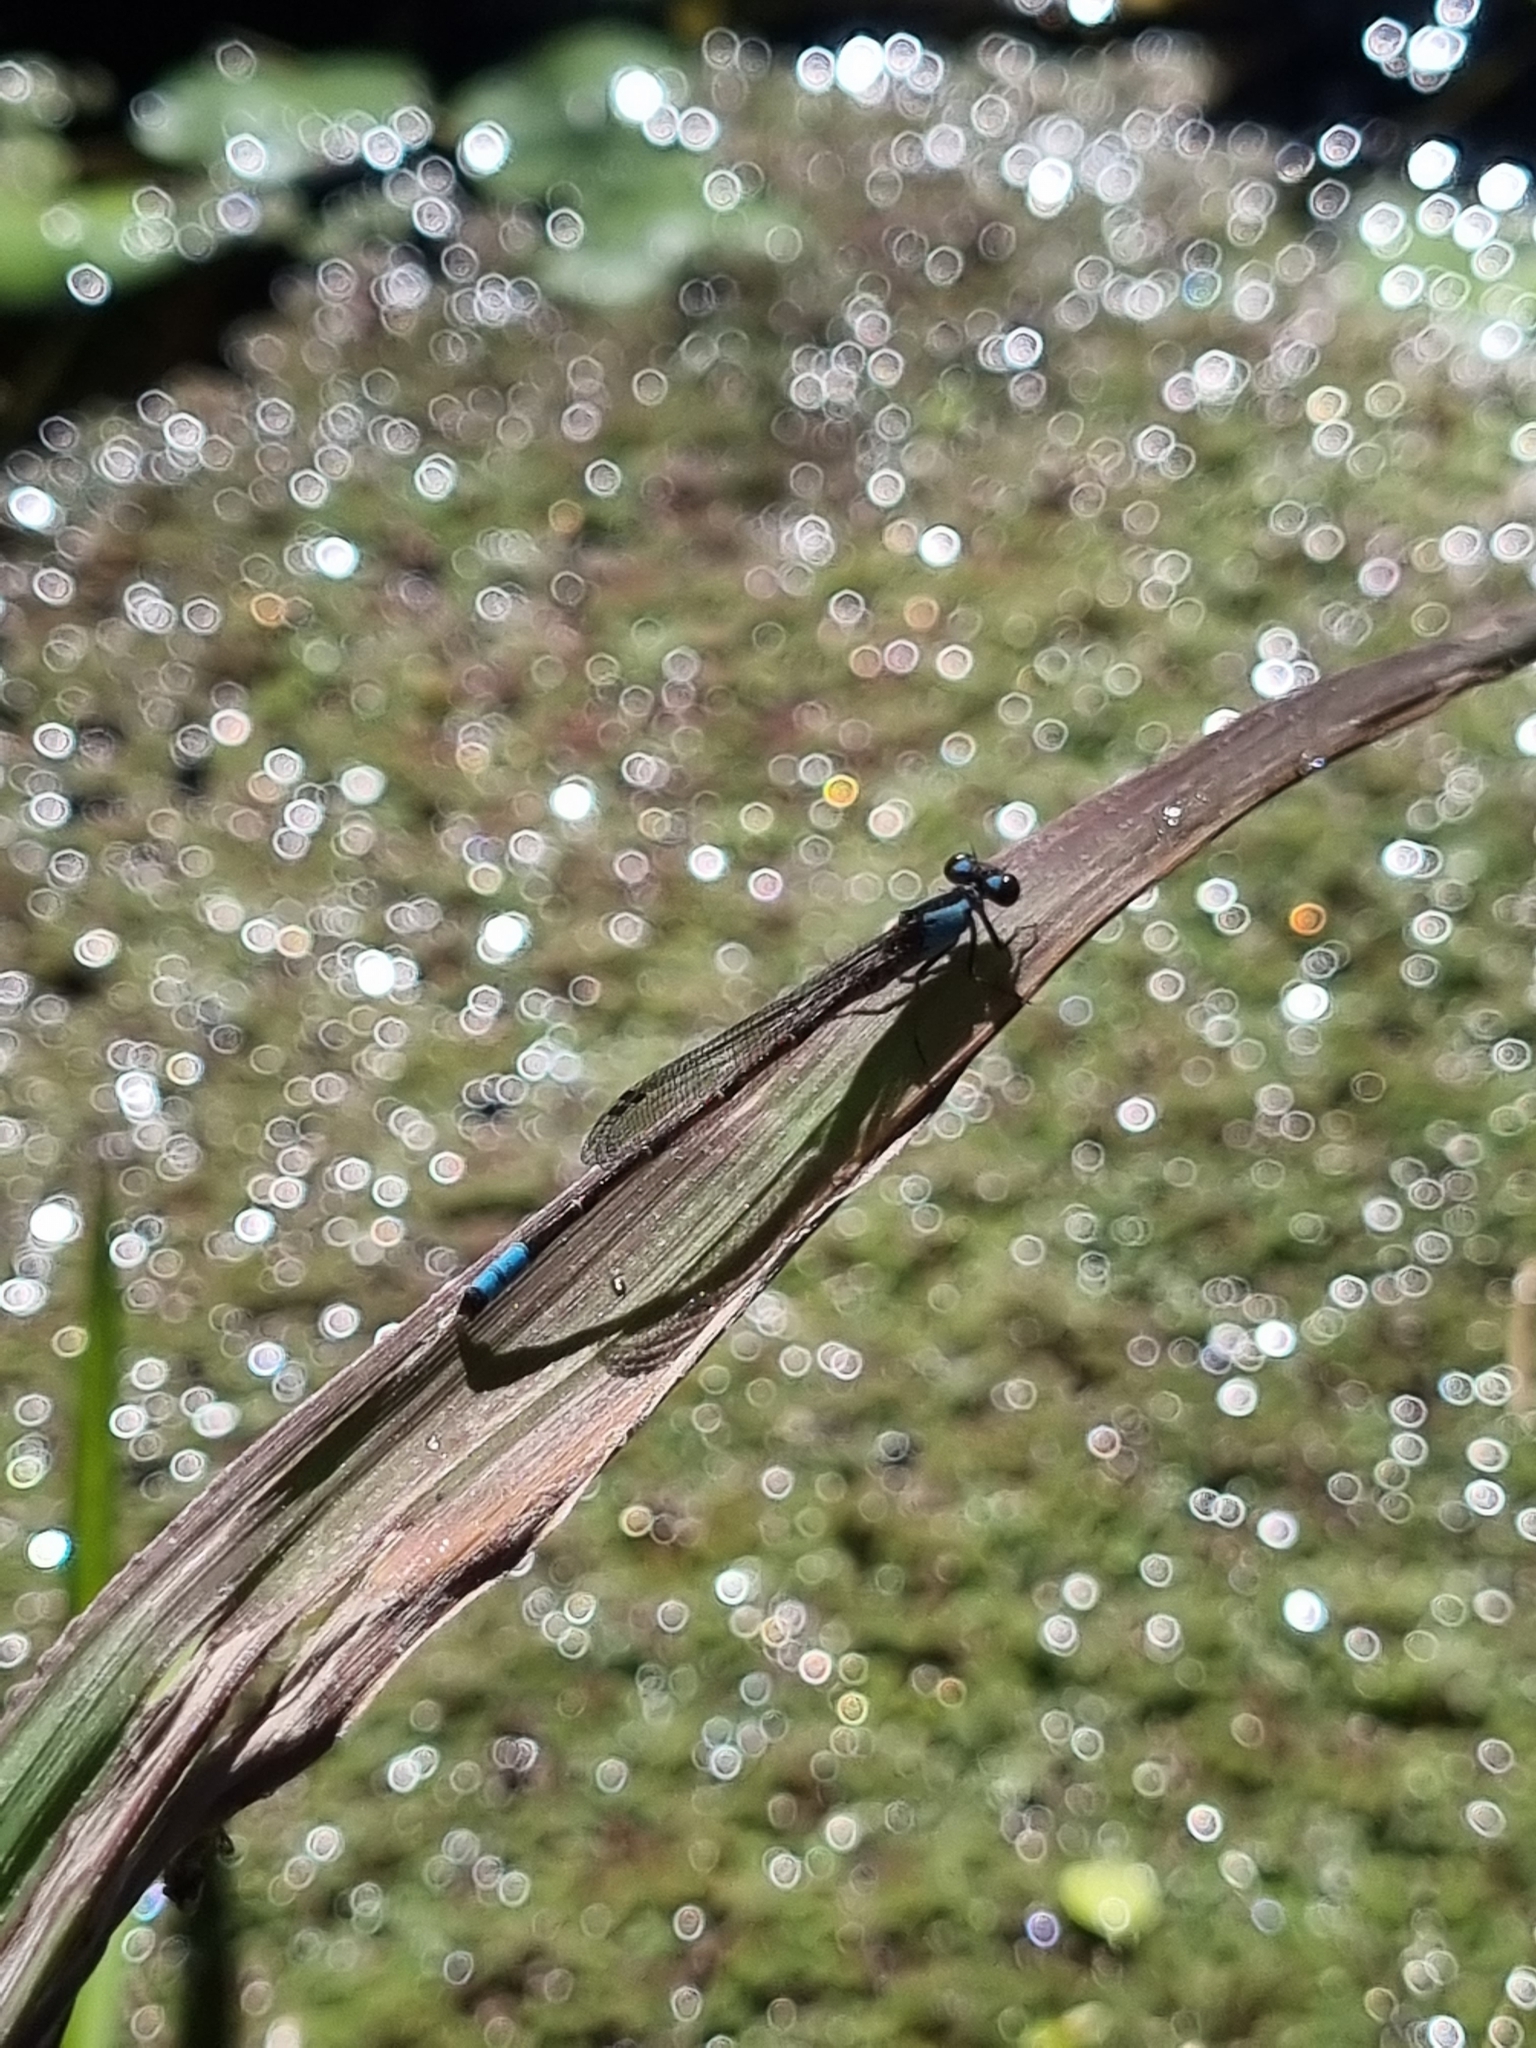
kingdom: Animalia
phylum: Arthropoda
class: Insecta
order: Odonata
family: Coenagrionidae
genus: Oxyagrion
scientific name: Oxyagrion ablutum
